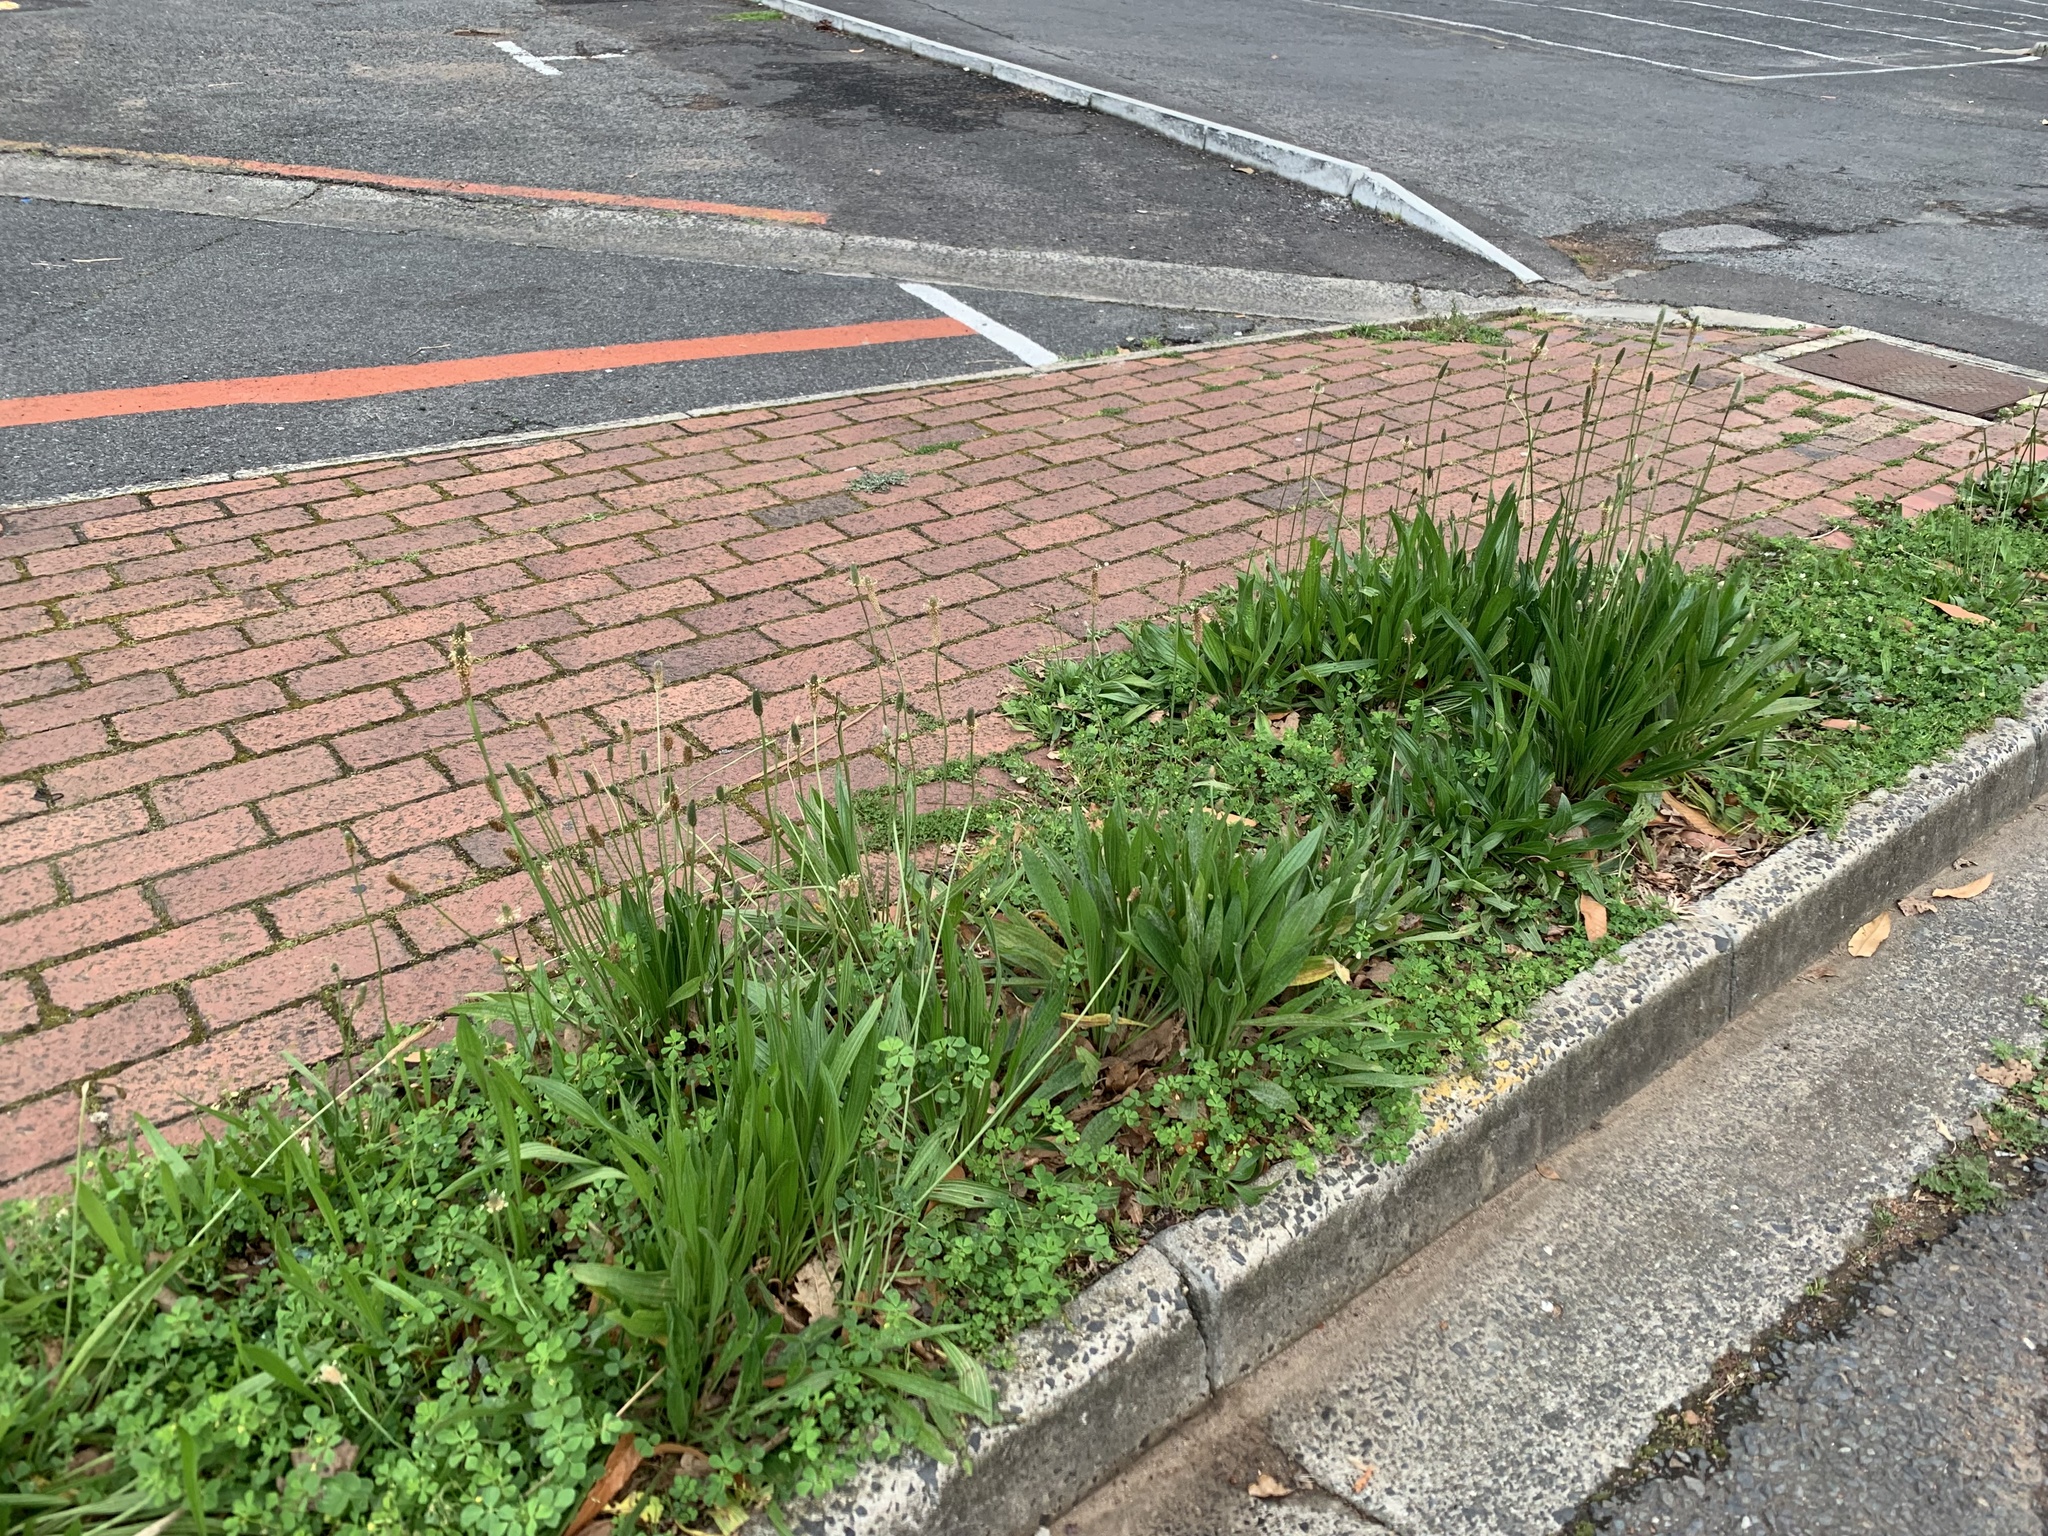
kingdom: Plantae
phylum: Tracheophyta
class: Magnoliopsida
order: Lamiales
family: Plantaginaceae
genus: Plantago
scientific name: Plantago lanceolata
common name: Ribwort plantain
